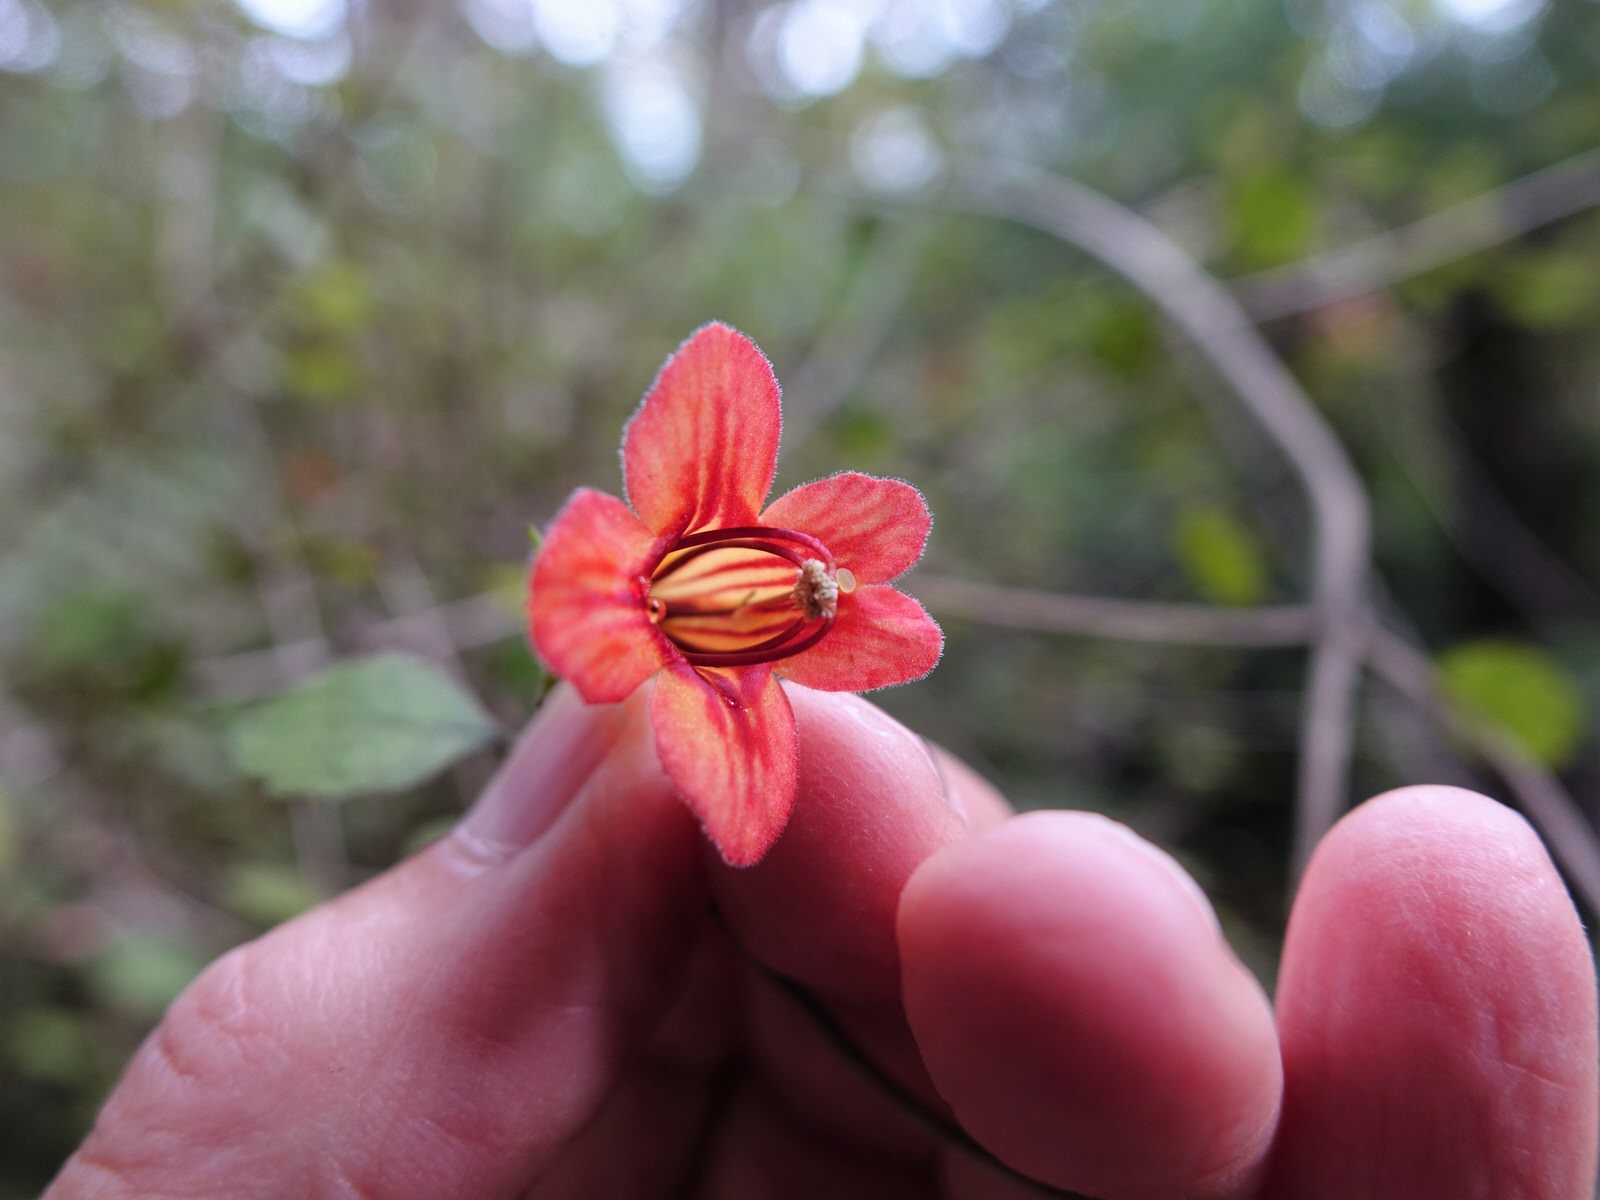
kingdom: Plantae
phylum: Tracheophyta
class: Magnoliopsida
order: Lamiales
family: Gesneriaceae
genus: Rhabdothamnus
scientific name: Rhabdothamnus solandri
